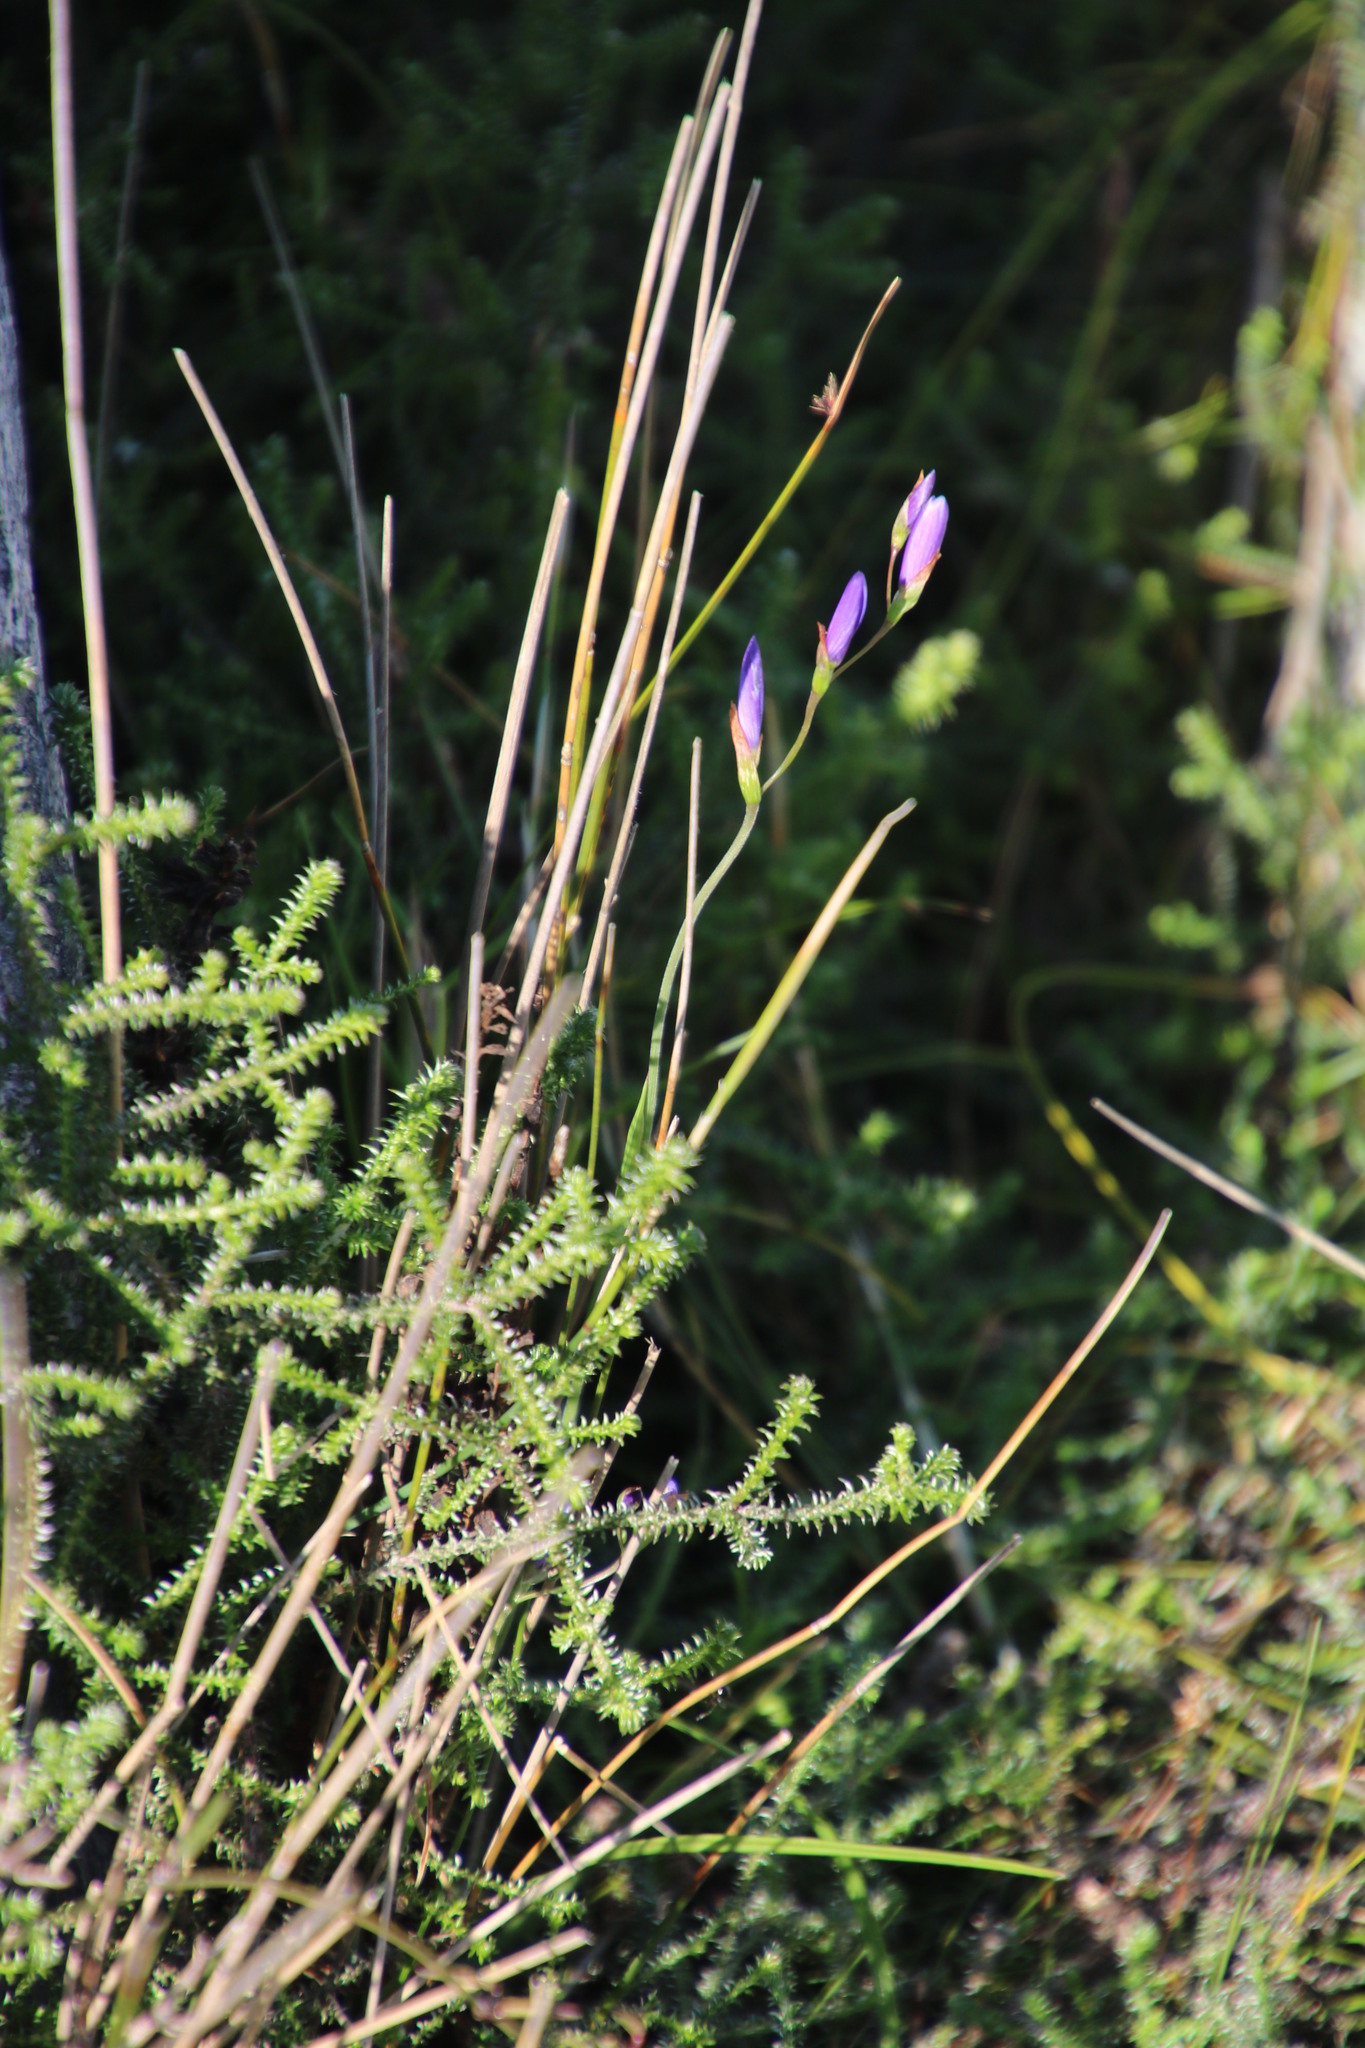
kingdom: Plantae
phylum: Tracheophyta
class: Liliopsida
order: Asparagales
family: Iridaceae
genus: Geissorhiza
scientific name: Geissorhiza aspera
